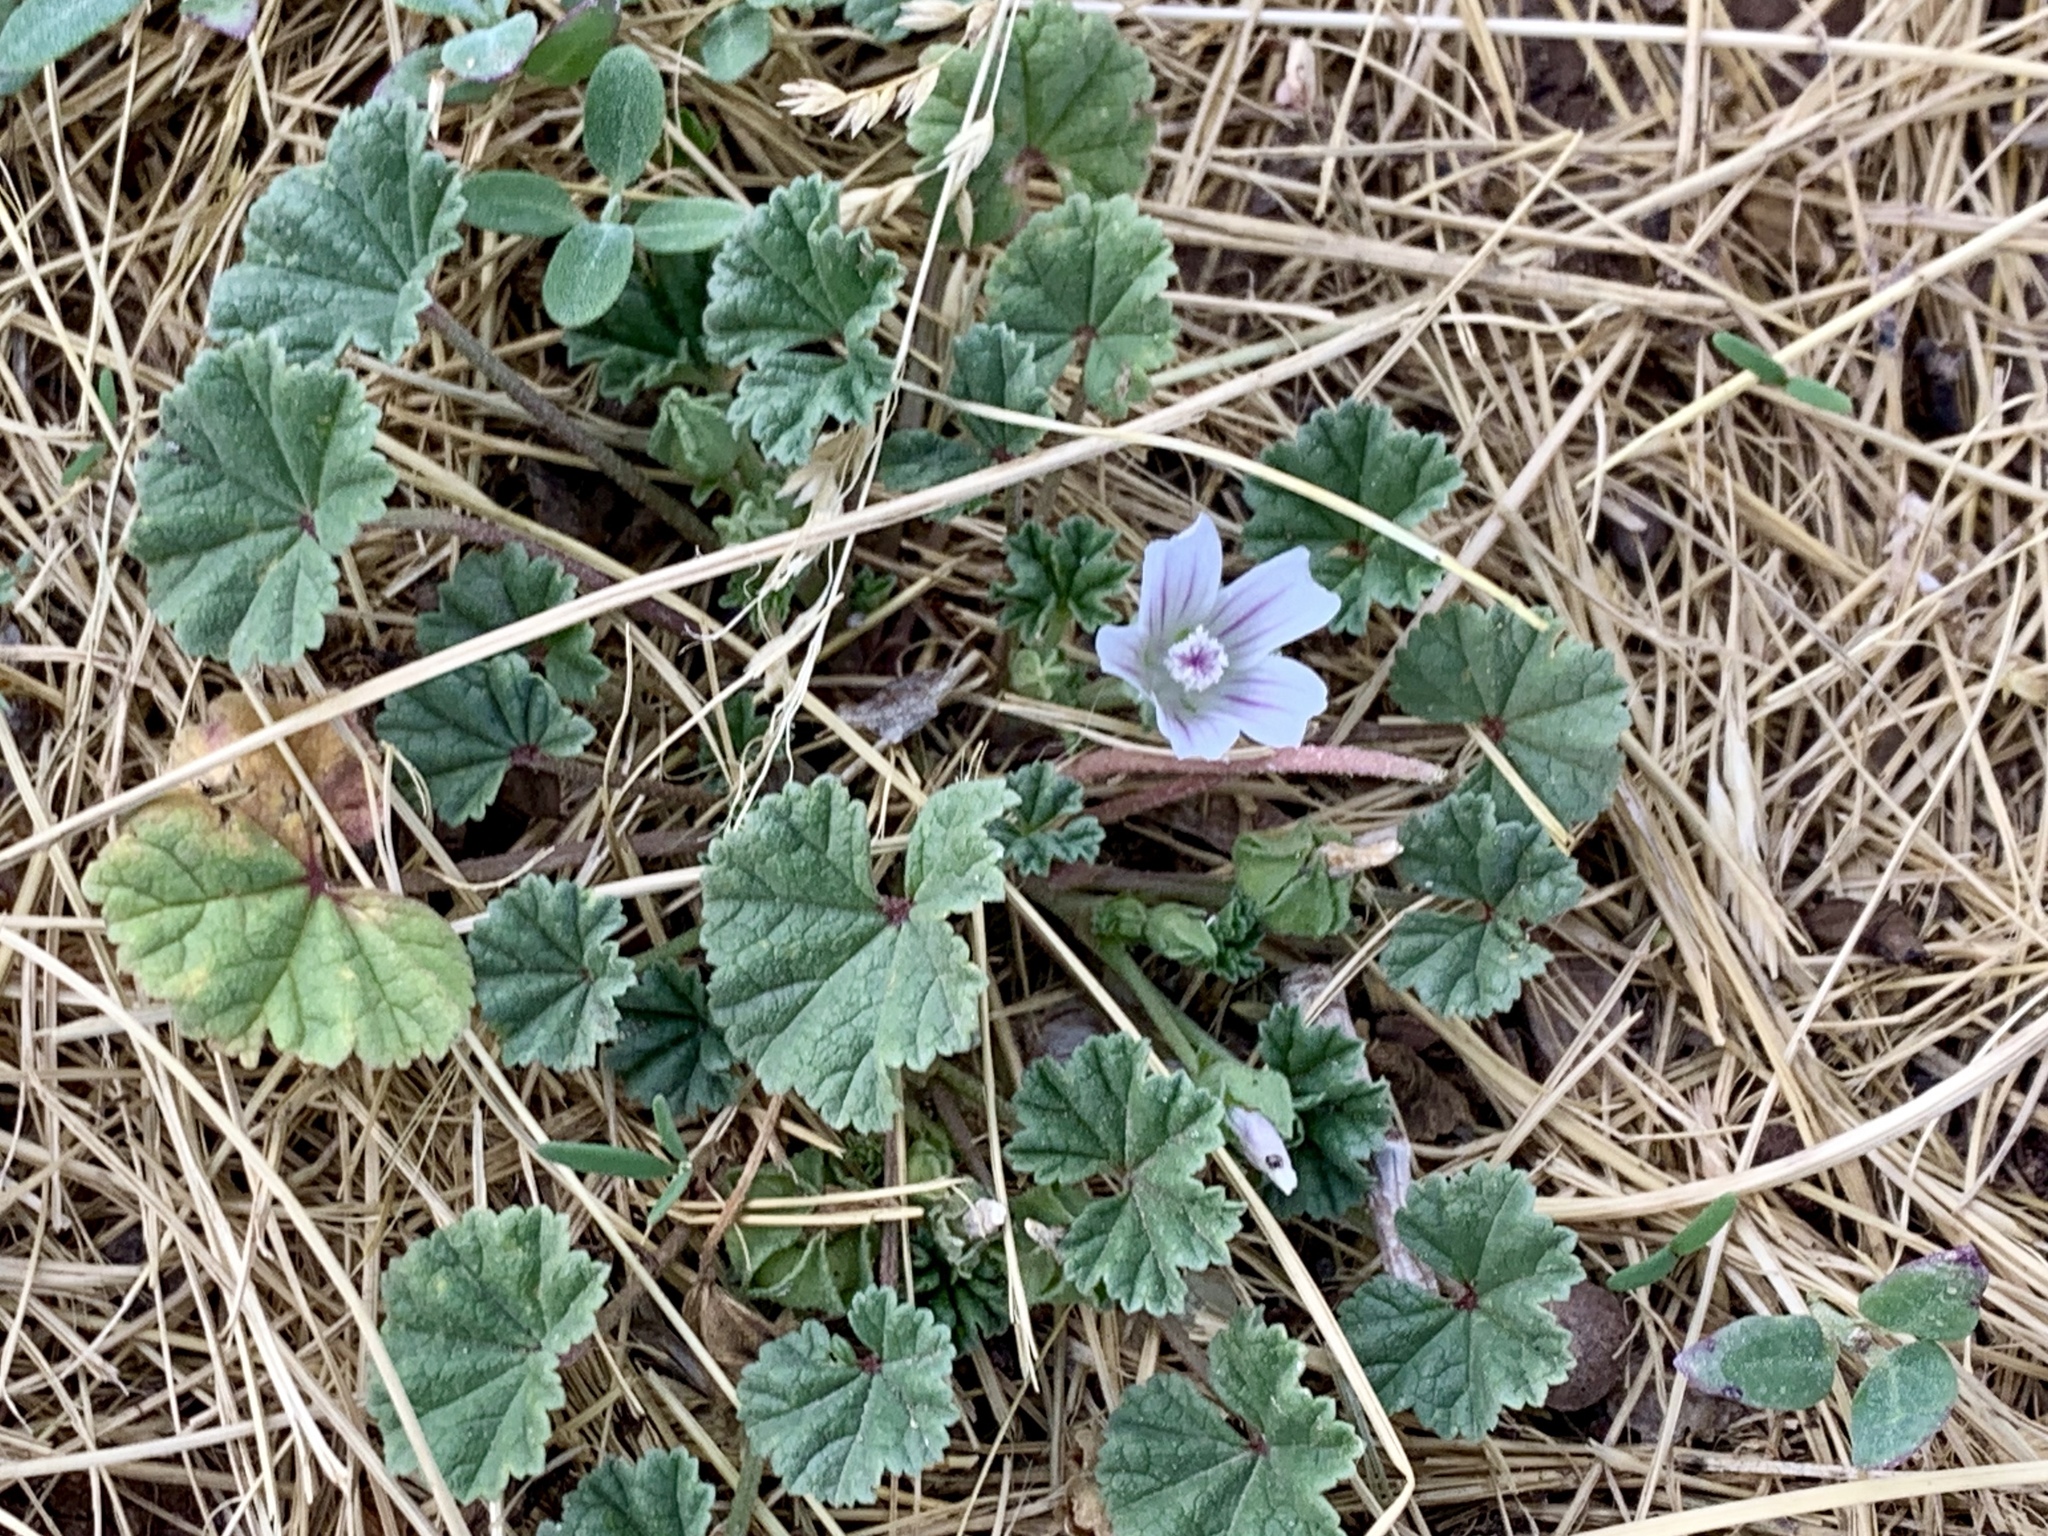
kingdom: Plantae
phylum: Tracheophyta
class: Magnoliopsida
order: Malvales
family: Malvaceae
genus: Malva
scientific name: Malva neglecta
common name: Common mallow
